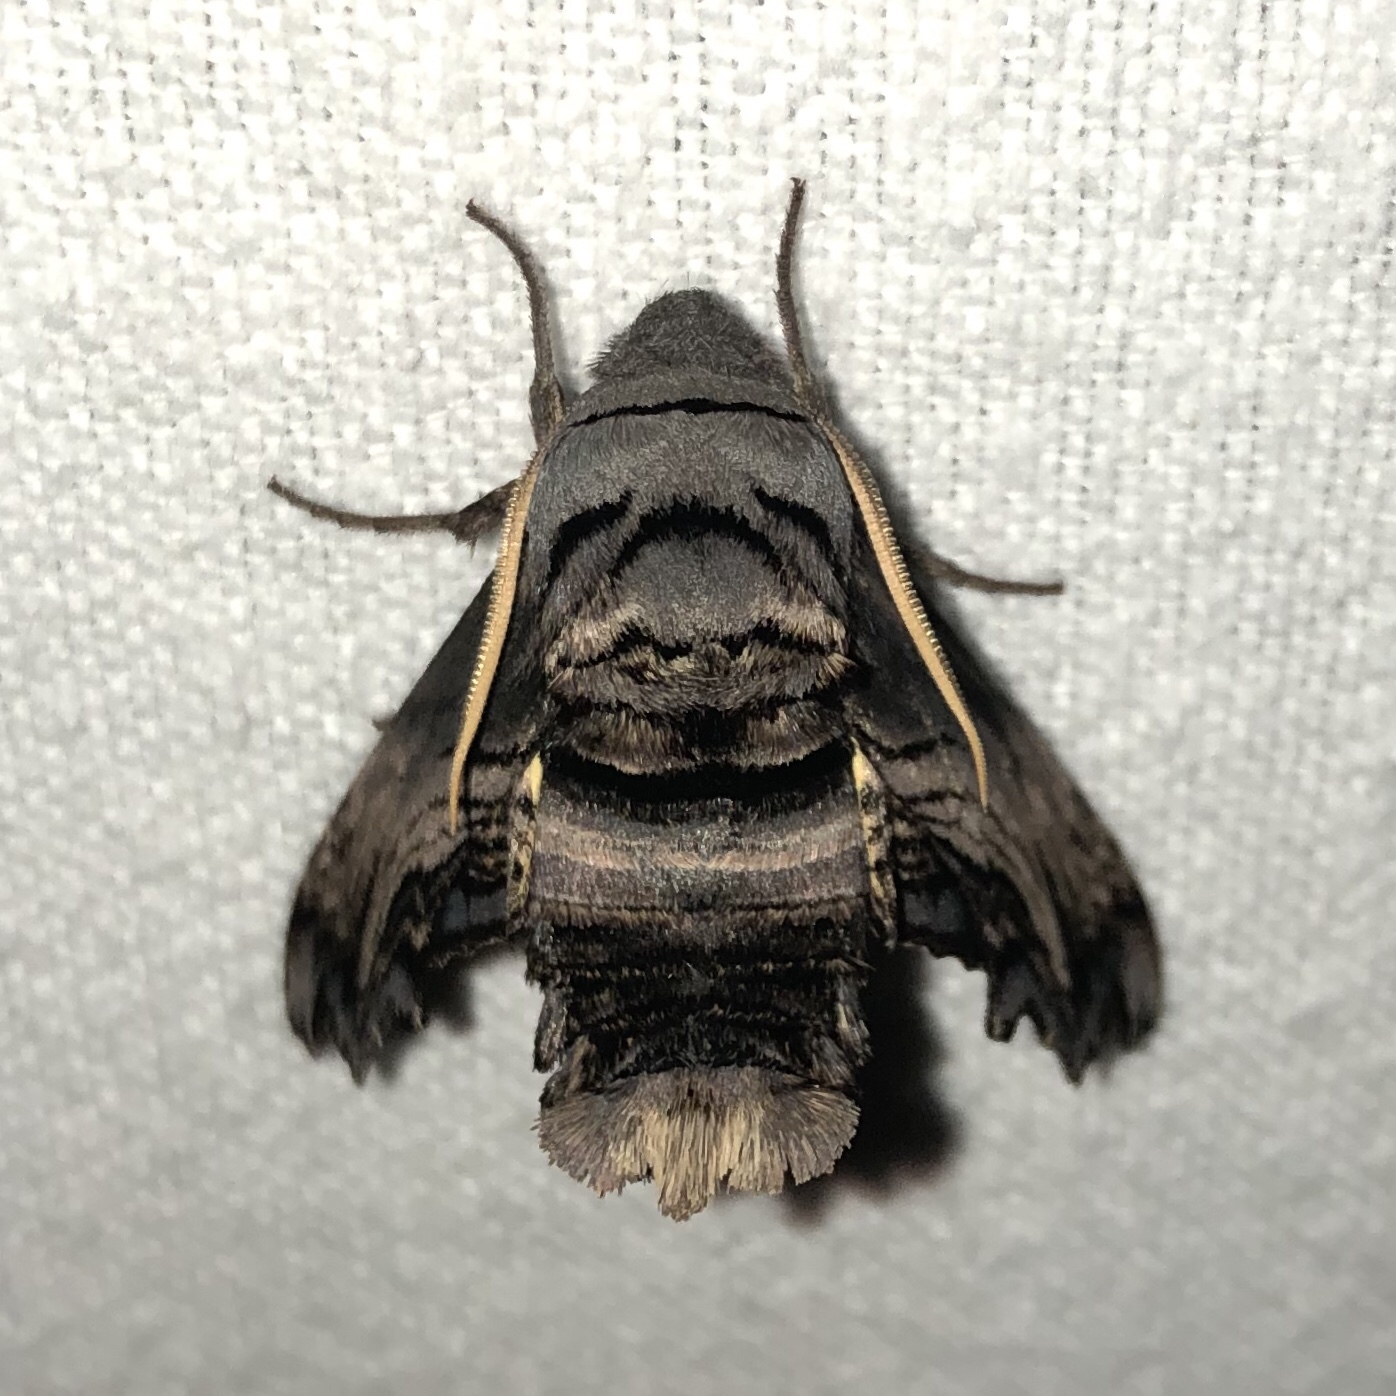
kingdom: Animalia
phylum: Arthropoda
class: Insecta
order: Lepidoptera
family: Sphingidae
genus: Sphecodina
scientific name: Sphecodina abbottii
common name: Abbott's sphinx
